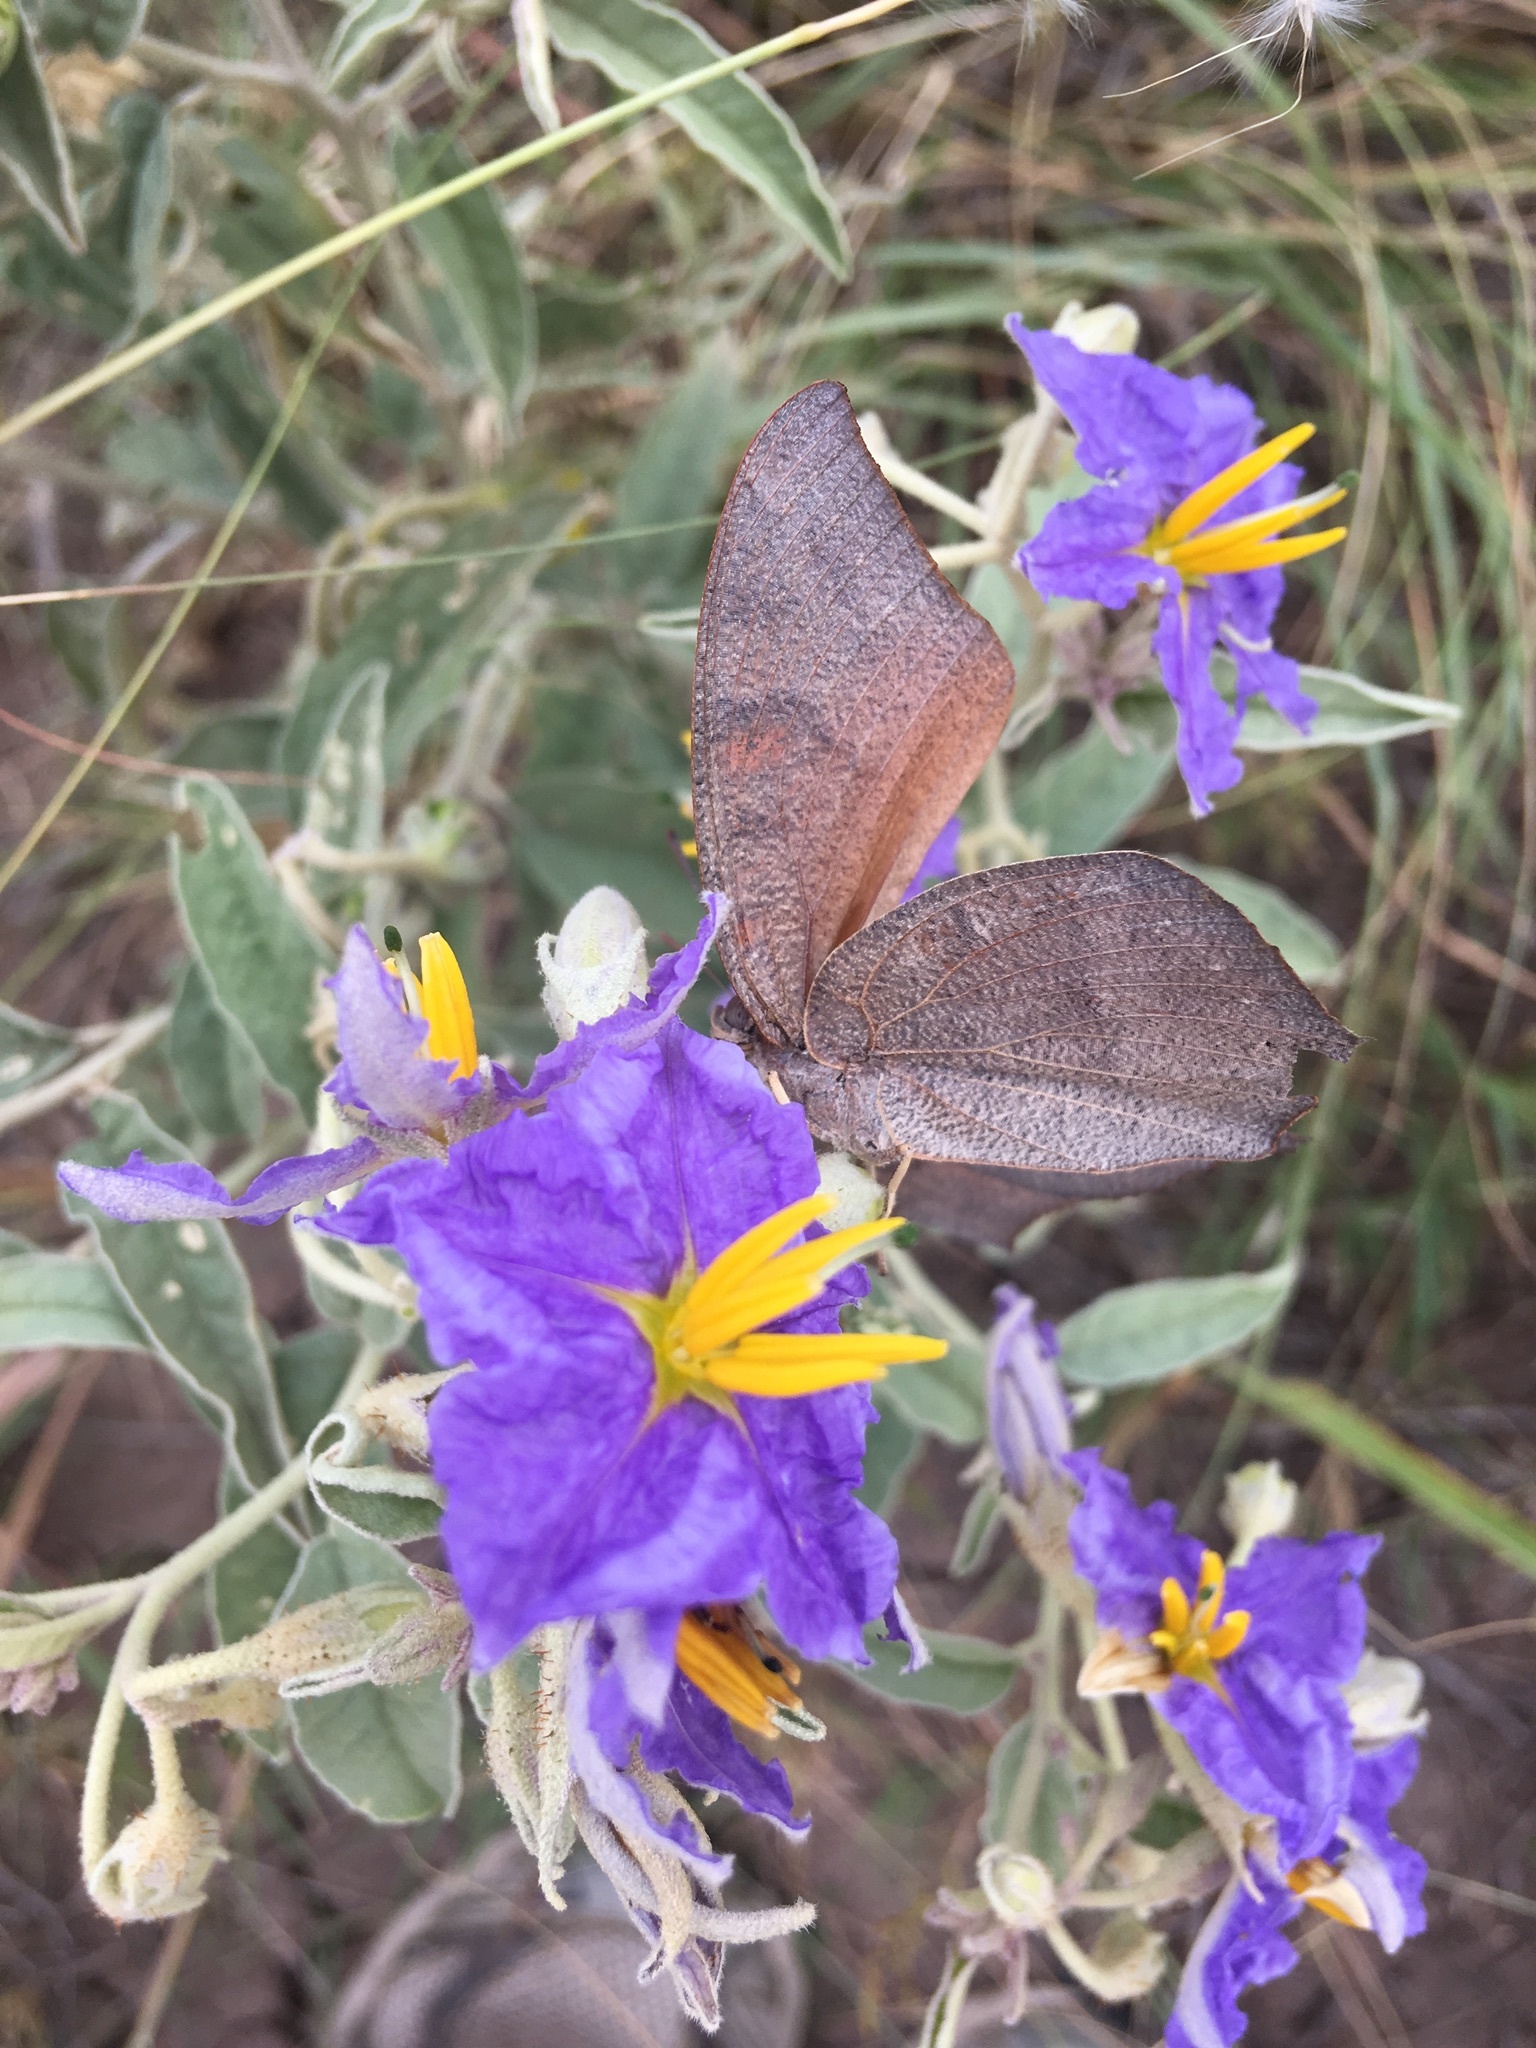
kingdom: Animalia
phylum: Arthropoda
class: Insecta
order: Lepidoptera
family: Nymphalidae
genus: Anaea
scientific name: Anaea andria
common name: Goatweed leafwing
